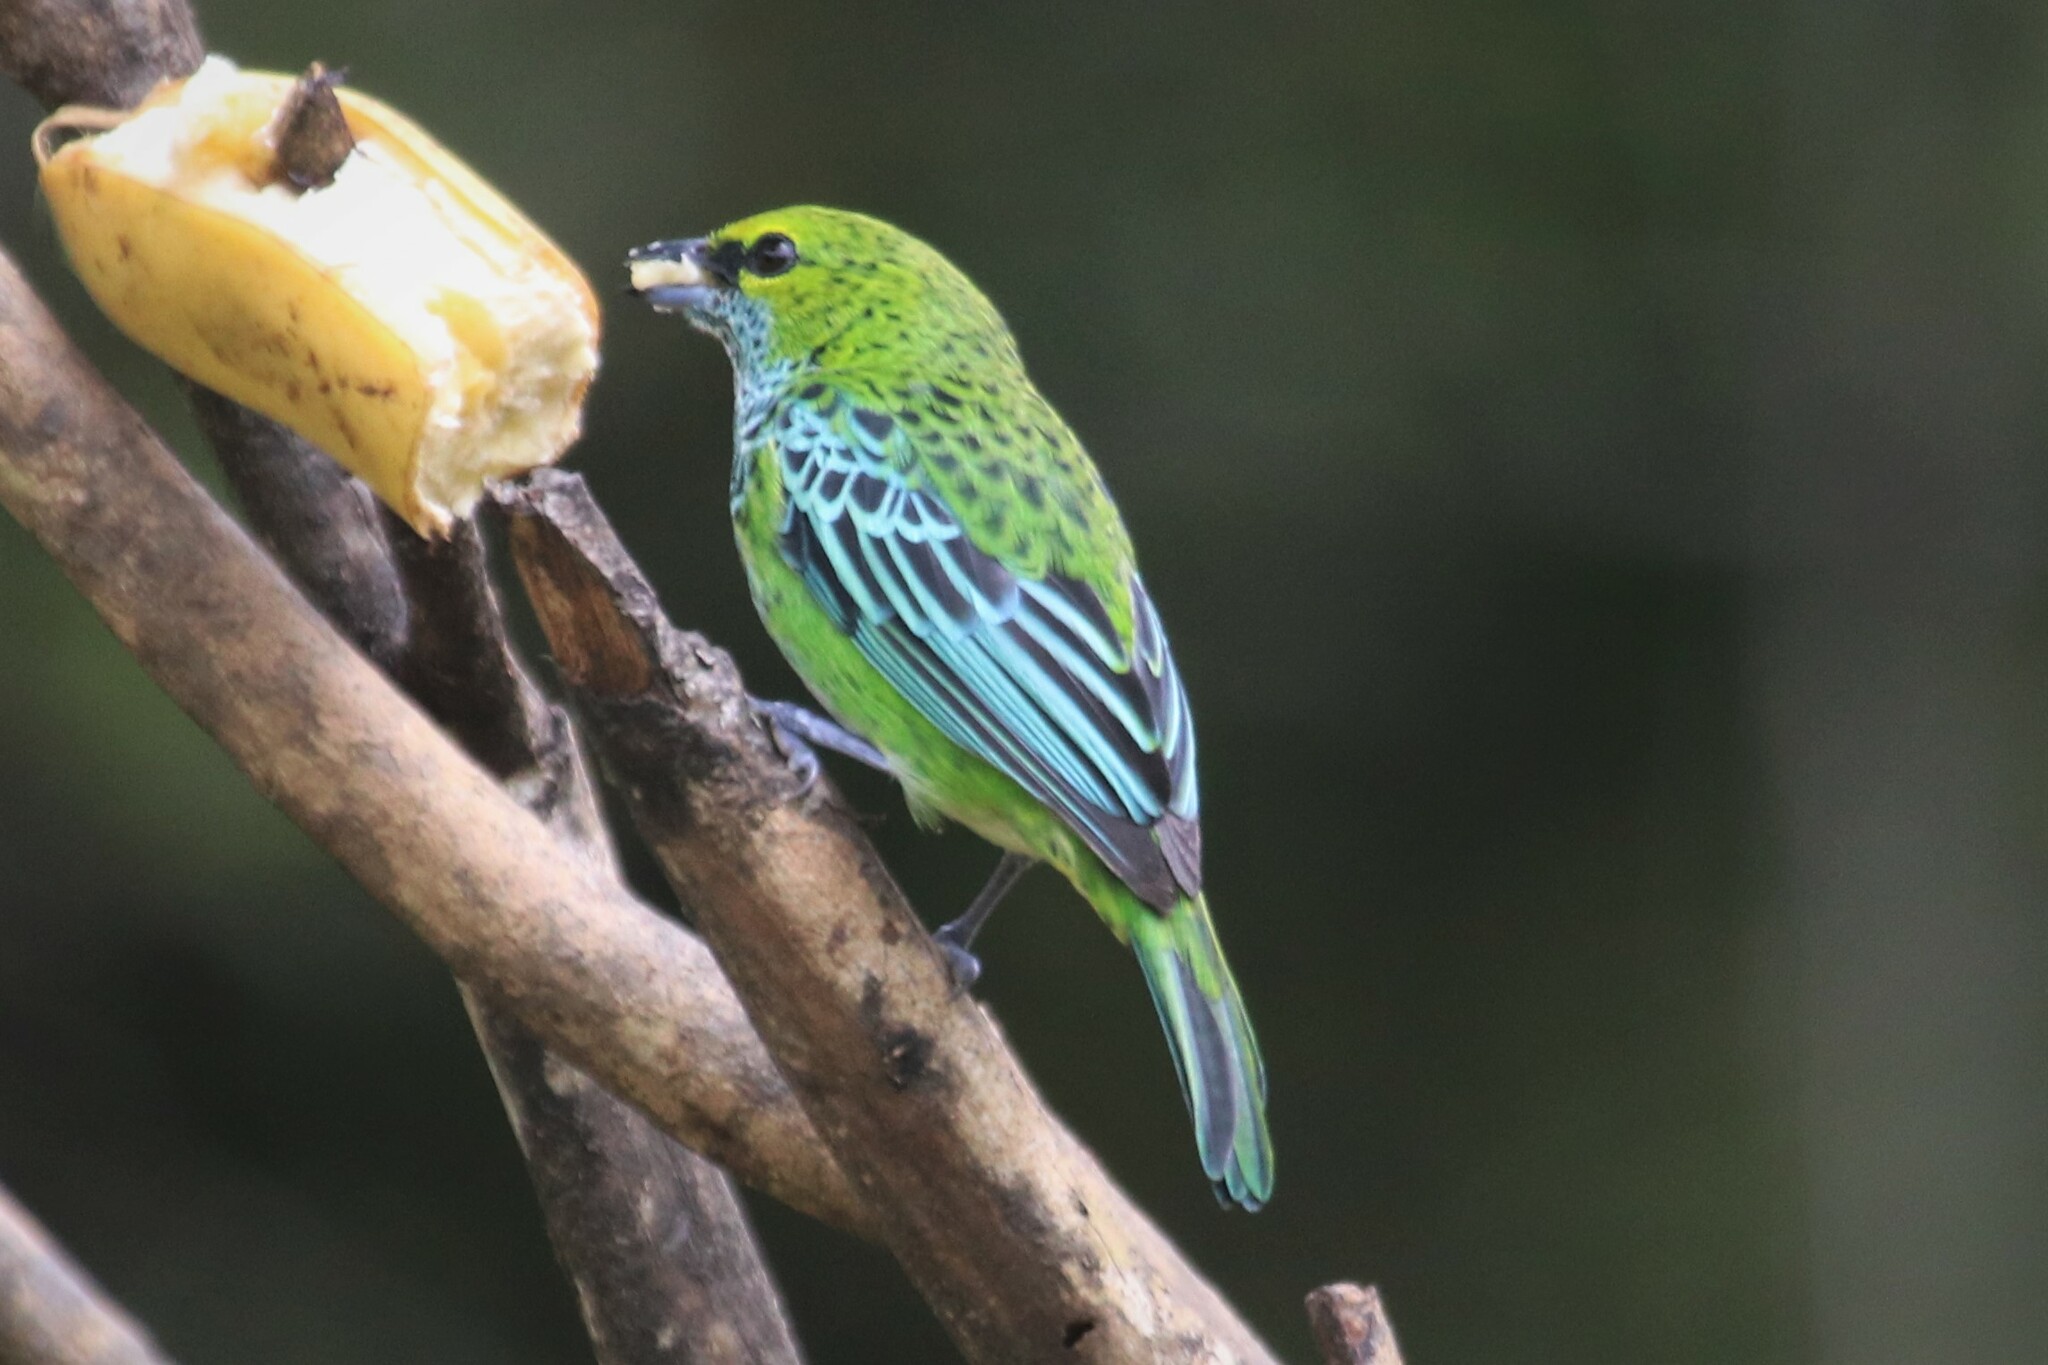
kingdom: Animalia
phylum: Chordata
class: Aves
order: Passeriformes
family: Thraupidae
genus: Ixothraupis
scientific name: Ixothraupis guttata
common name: Speckled tanager
